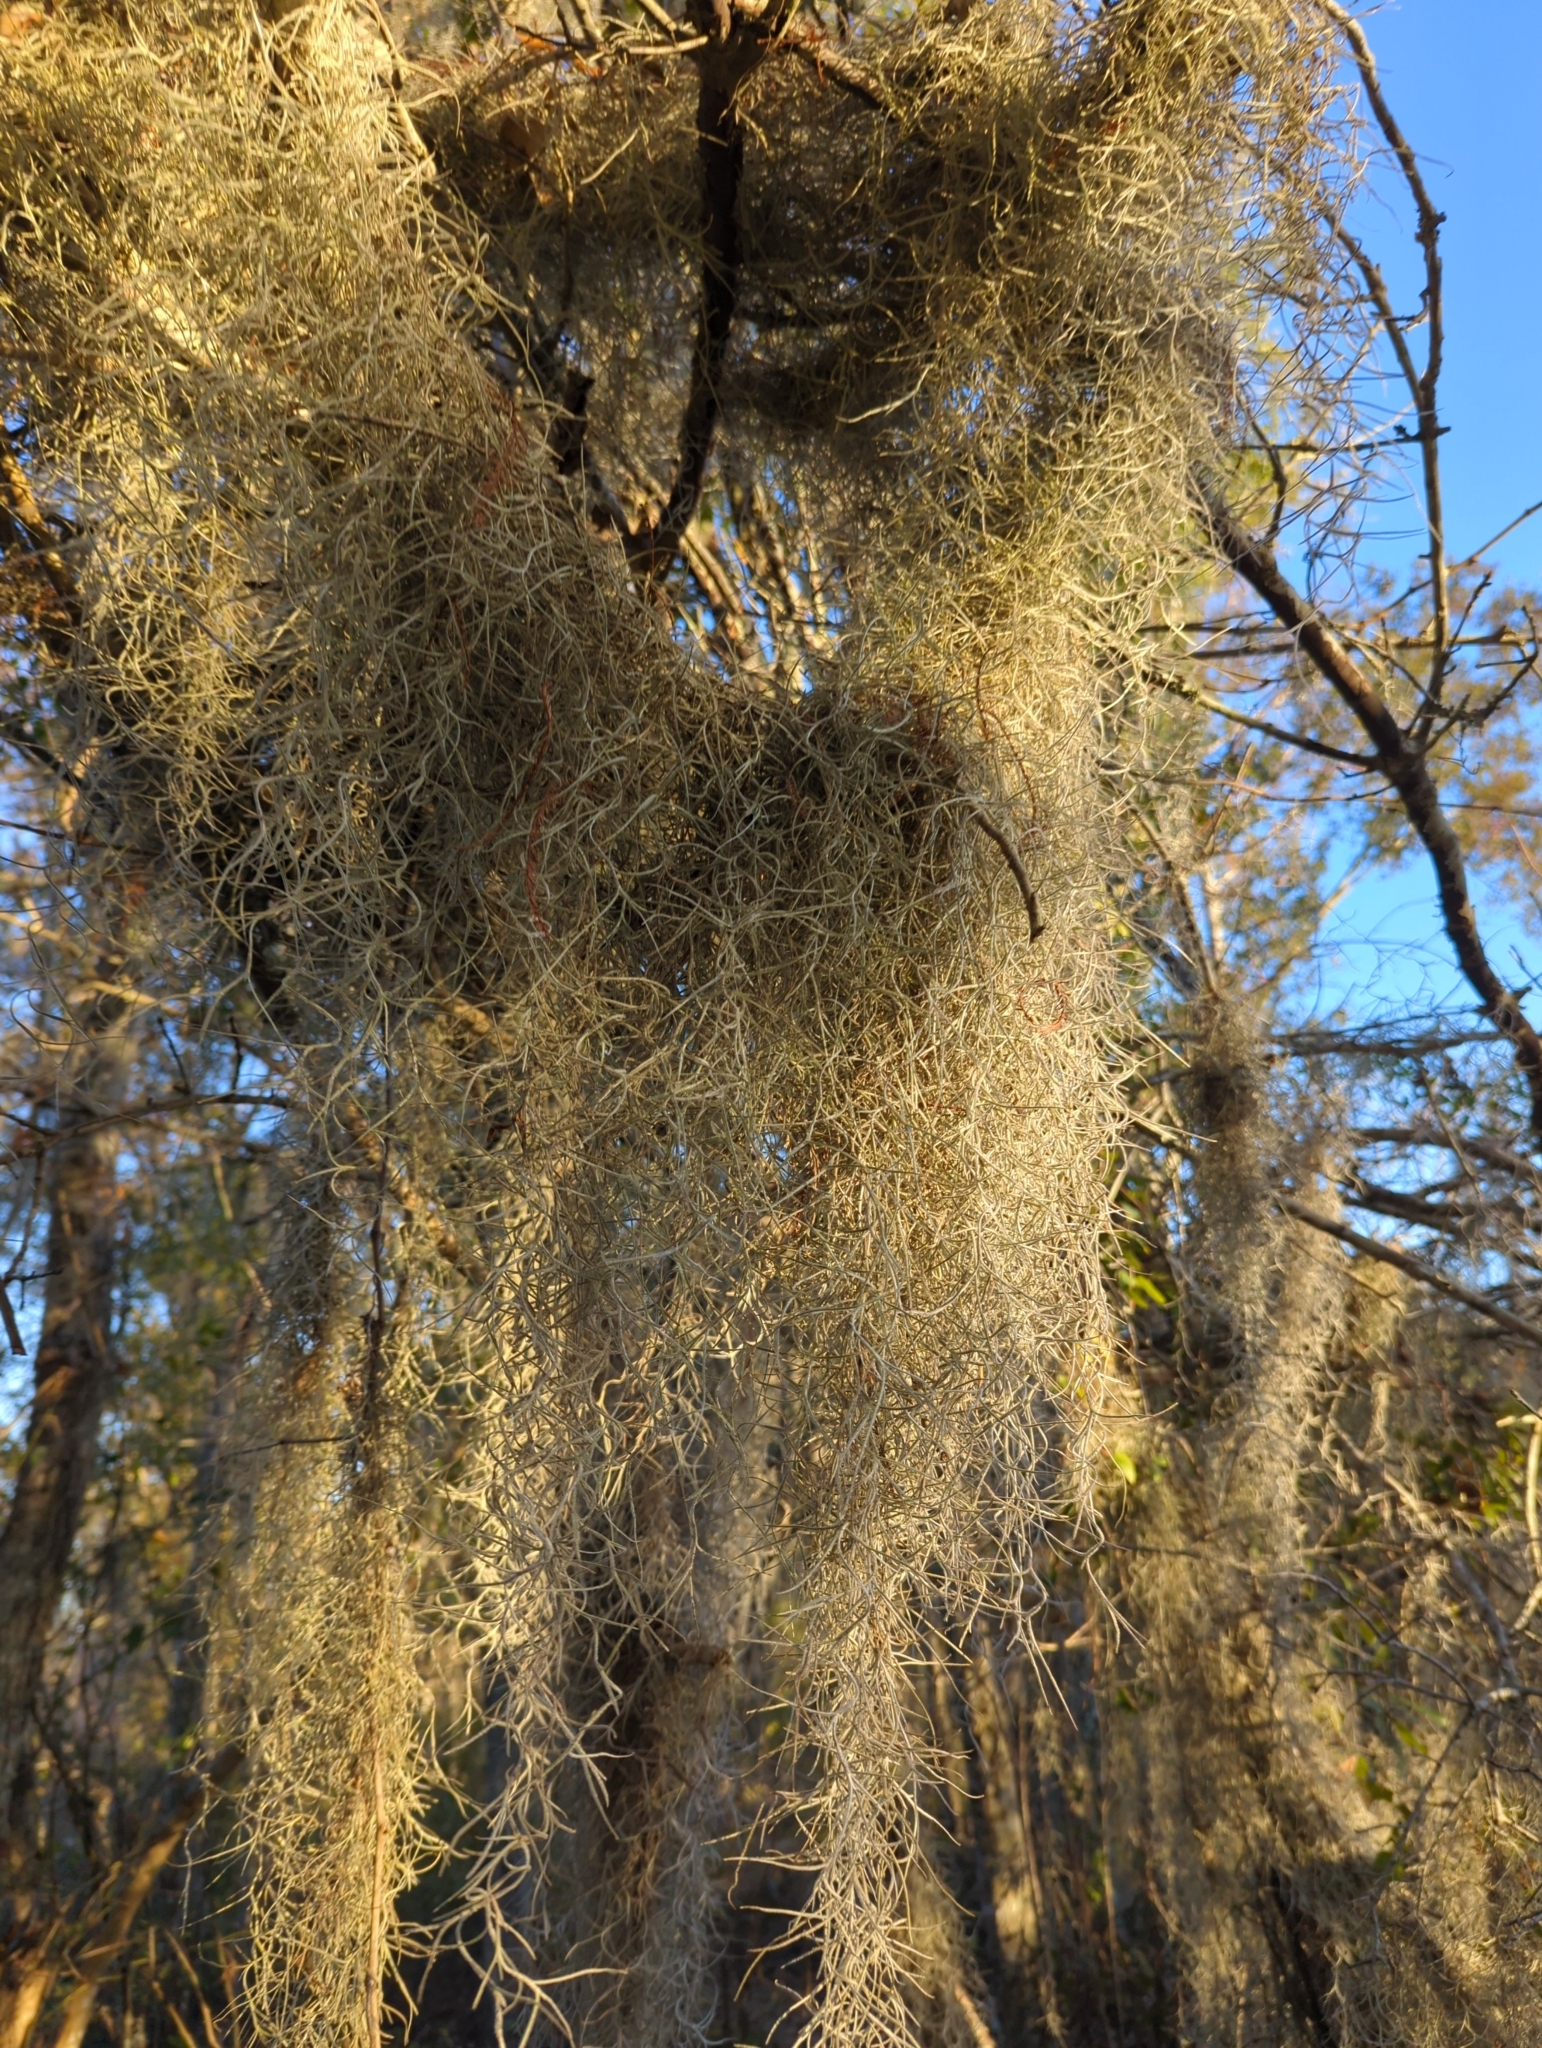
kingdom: Plantae
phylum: Tracheophyta
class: Liliopsida
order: Poales
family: Bromeliaceae
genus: Tillandsia
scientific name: Tillandsia usneoides
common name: Spanish moss
